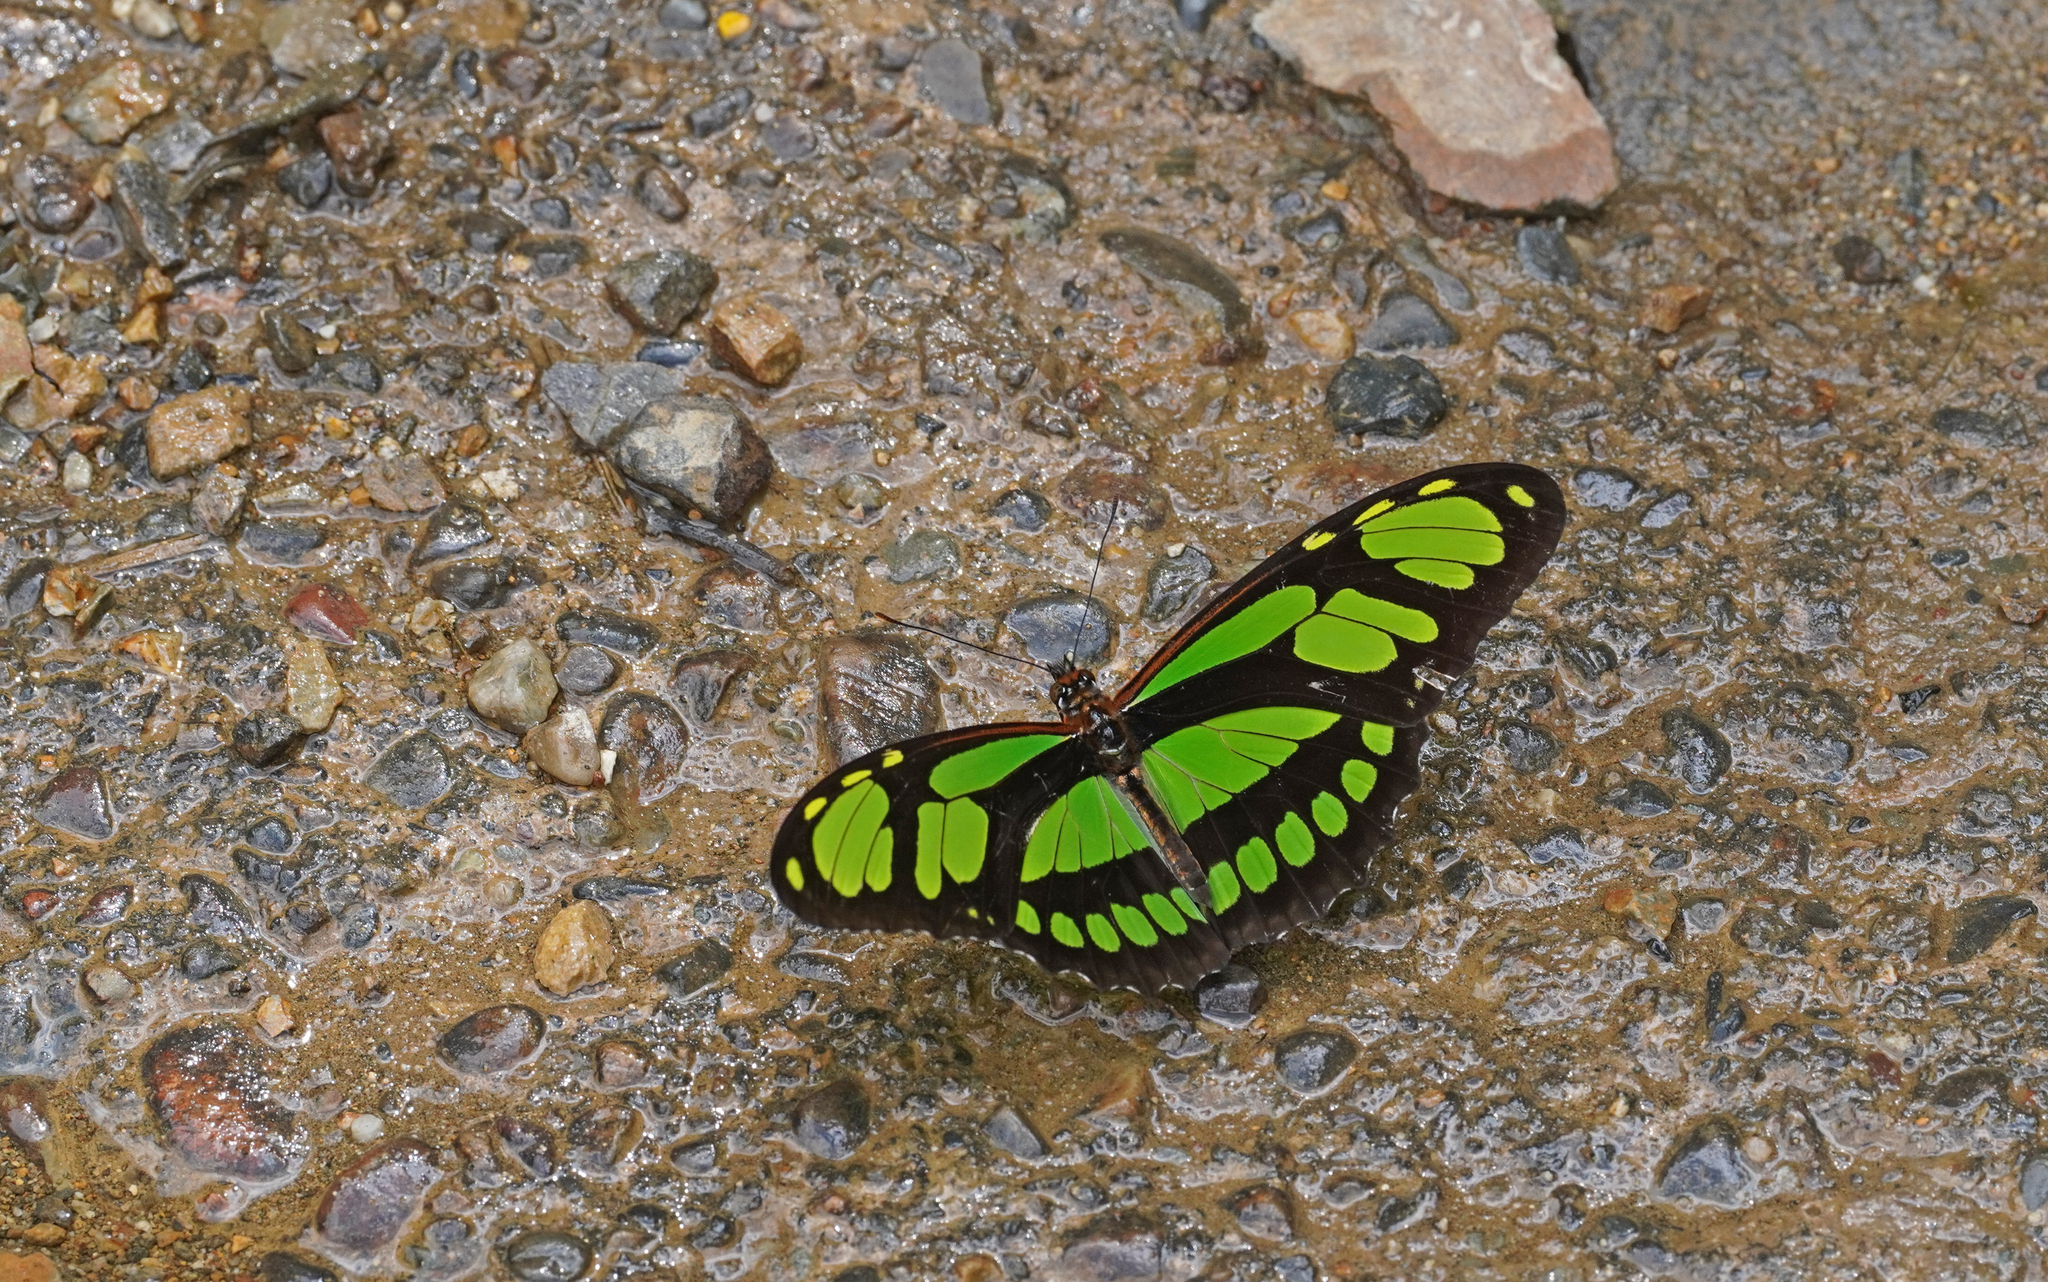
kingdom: Animalia
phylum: Arthropoda
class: Insecta
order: Lepidoptera
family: Nymphalidae
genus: Philaethria
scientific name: Philaethria ostara
